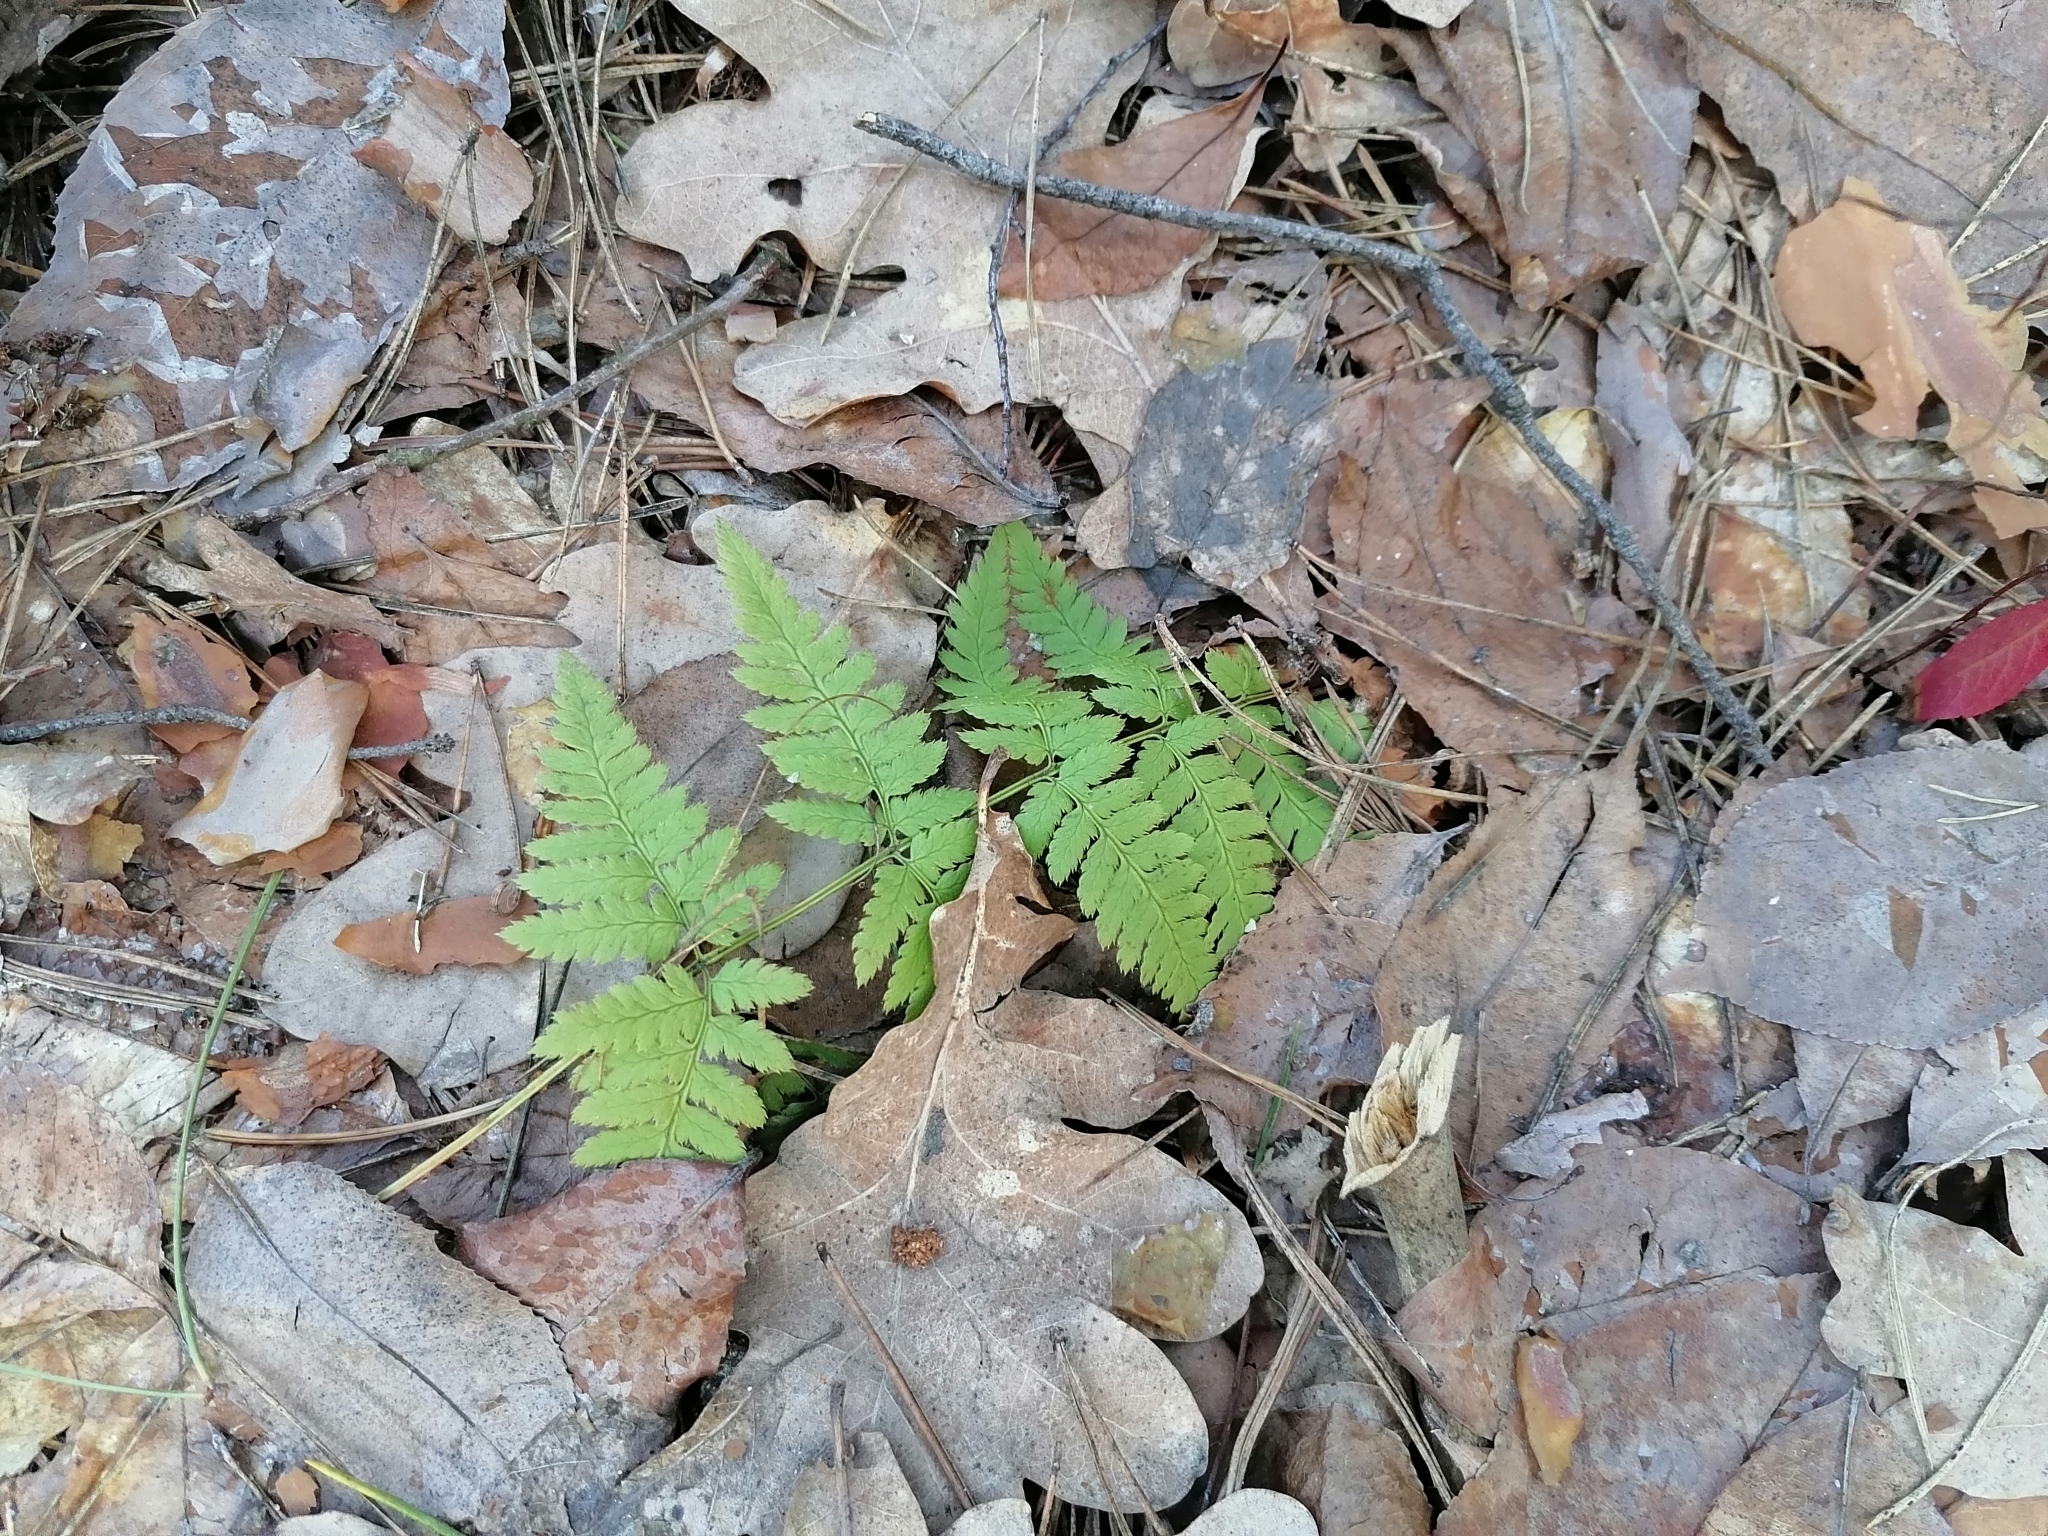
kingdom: Plantae
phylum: Tracheophyta
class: Polypodiopsida
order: Polypodiales
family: Dryopteridaceae
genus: Dryopteris
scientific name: Dryopteris carthusiana
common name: Narrow buckler-fern
